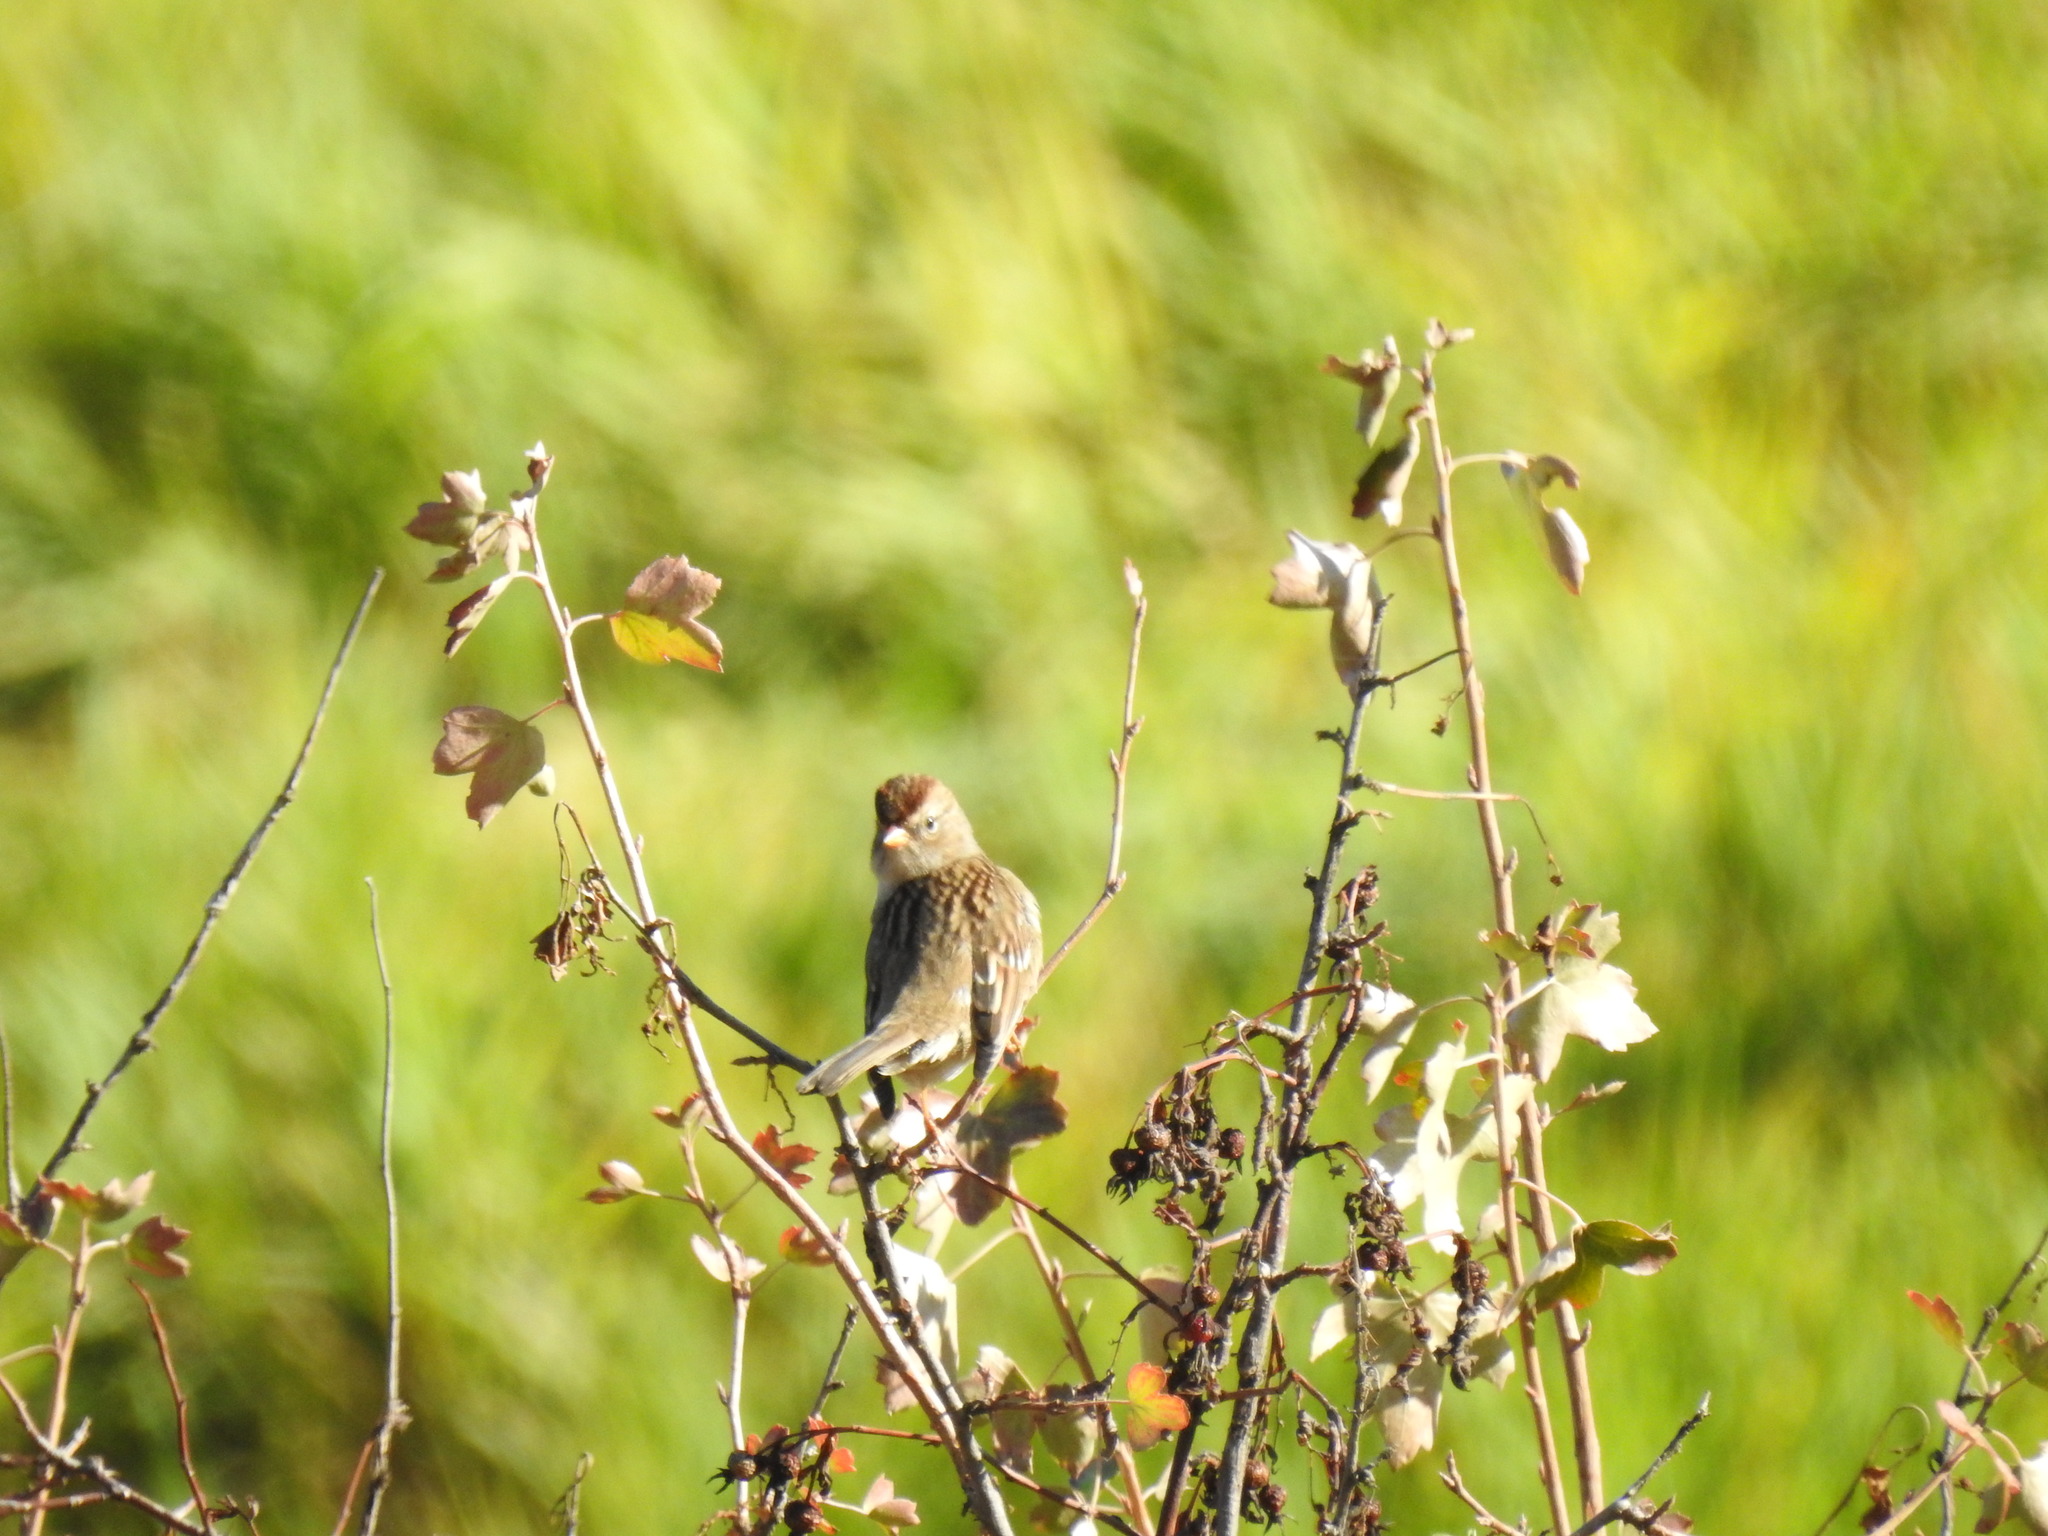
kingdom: Animalia
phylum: Chordata
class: Aves
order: Passeriformes
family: Passerellidae
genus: Zonotrichia
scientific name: Zonotrichia leucophrys
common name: White-crowned sparrow
